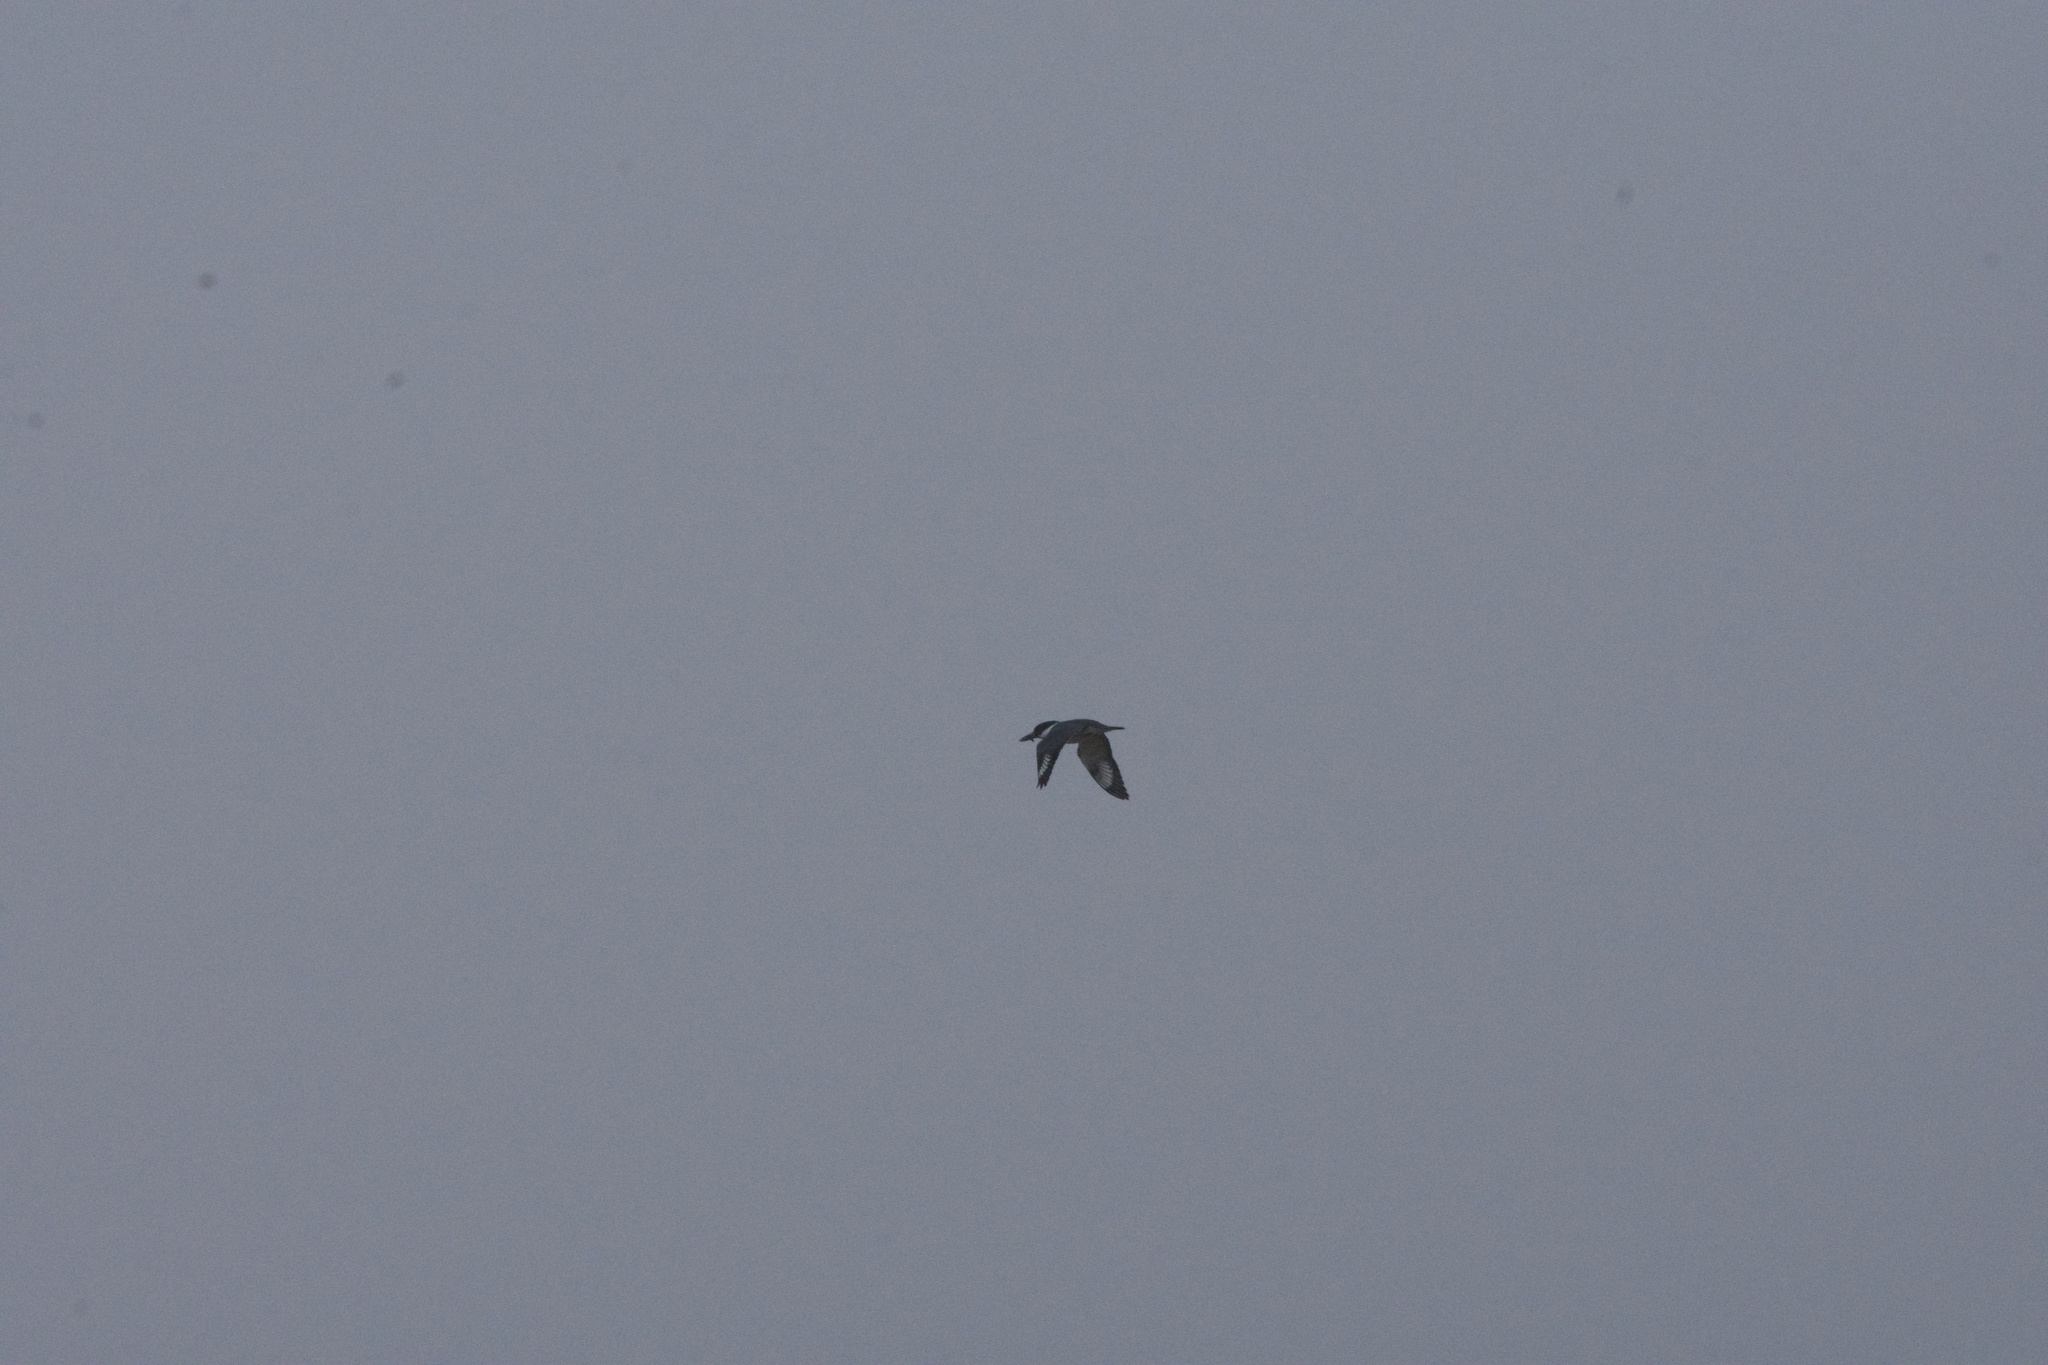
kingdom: Animalia
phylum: Chordata
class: Aves
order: Coraciiformes
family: Alcedinidae
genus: Megaceryle
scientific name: Megaceryle alcyon
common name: Belted kingfisher
